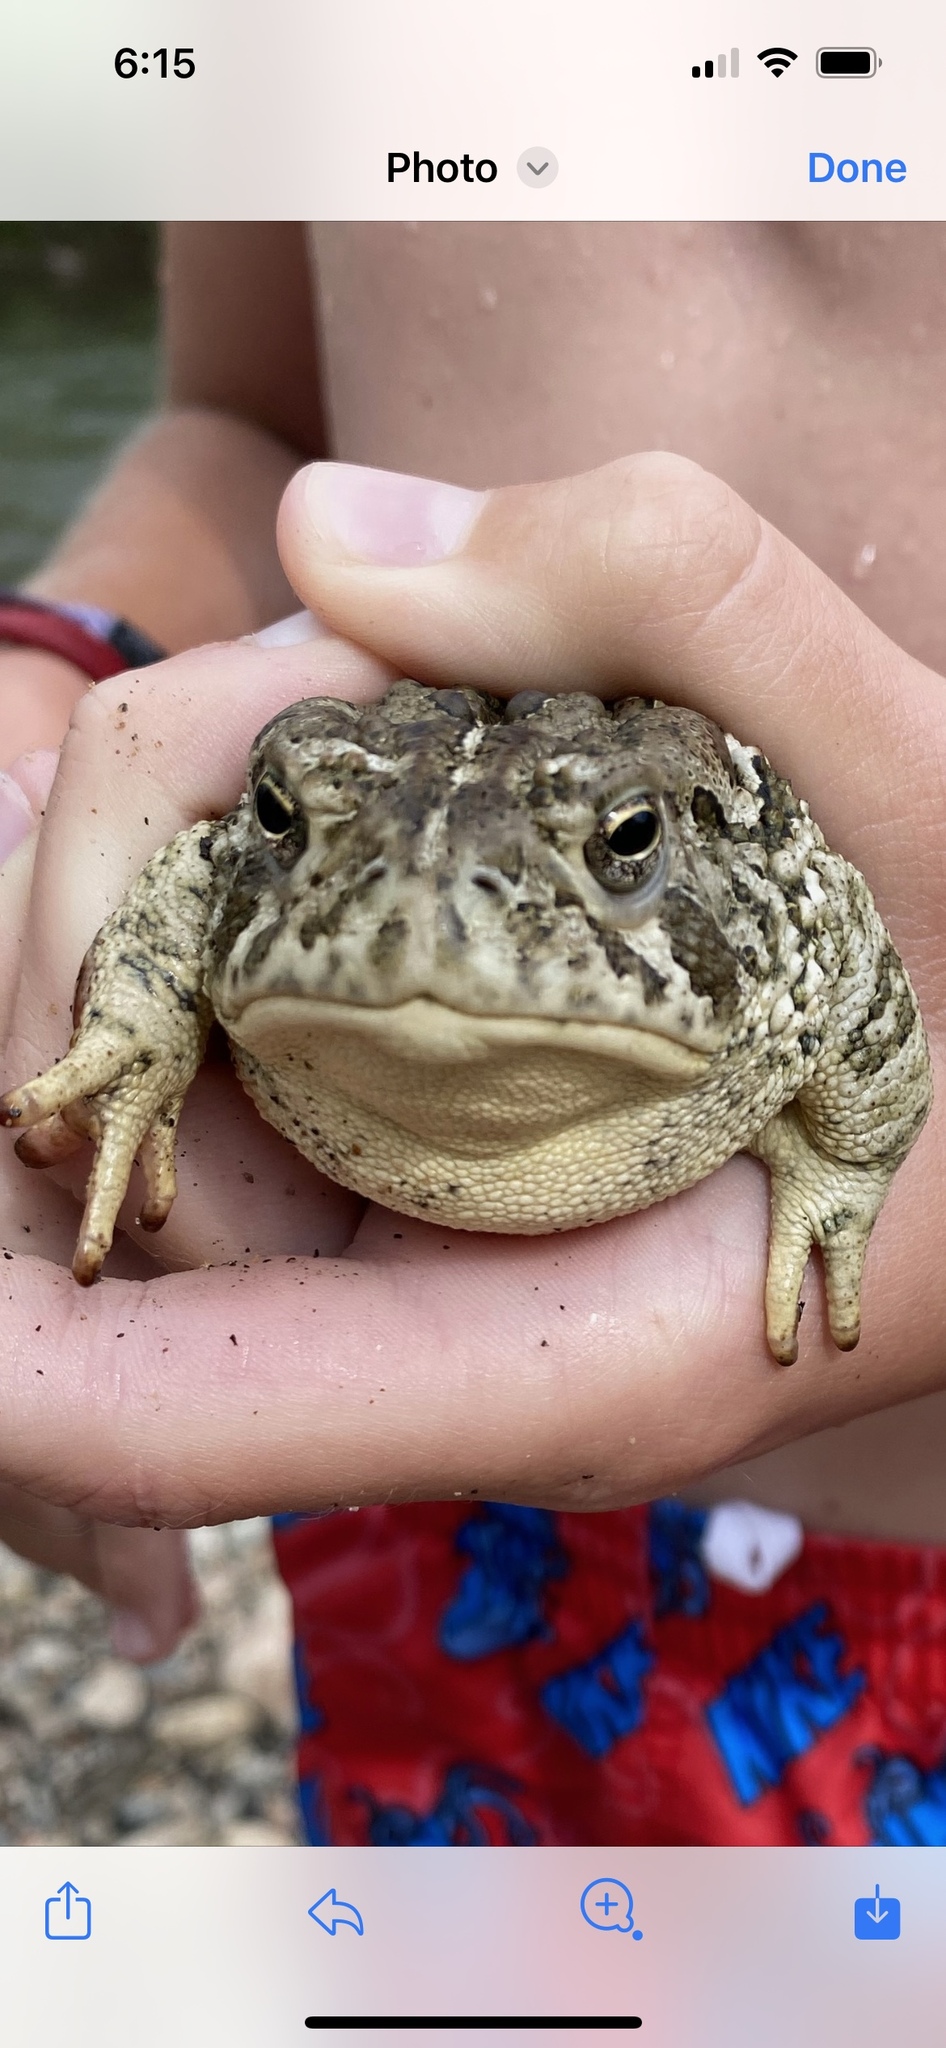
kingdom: Animalia
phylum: Chordata
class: Amphibia
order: Anura
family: Bufonidae
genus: Anaxyrus
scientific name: Anaxyrus woodhousii
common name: Woodhouse's toad
